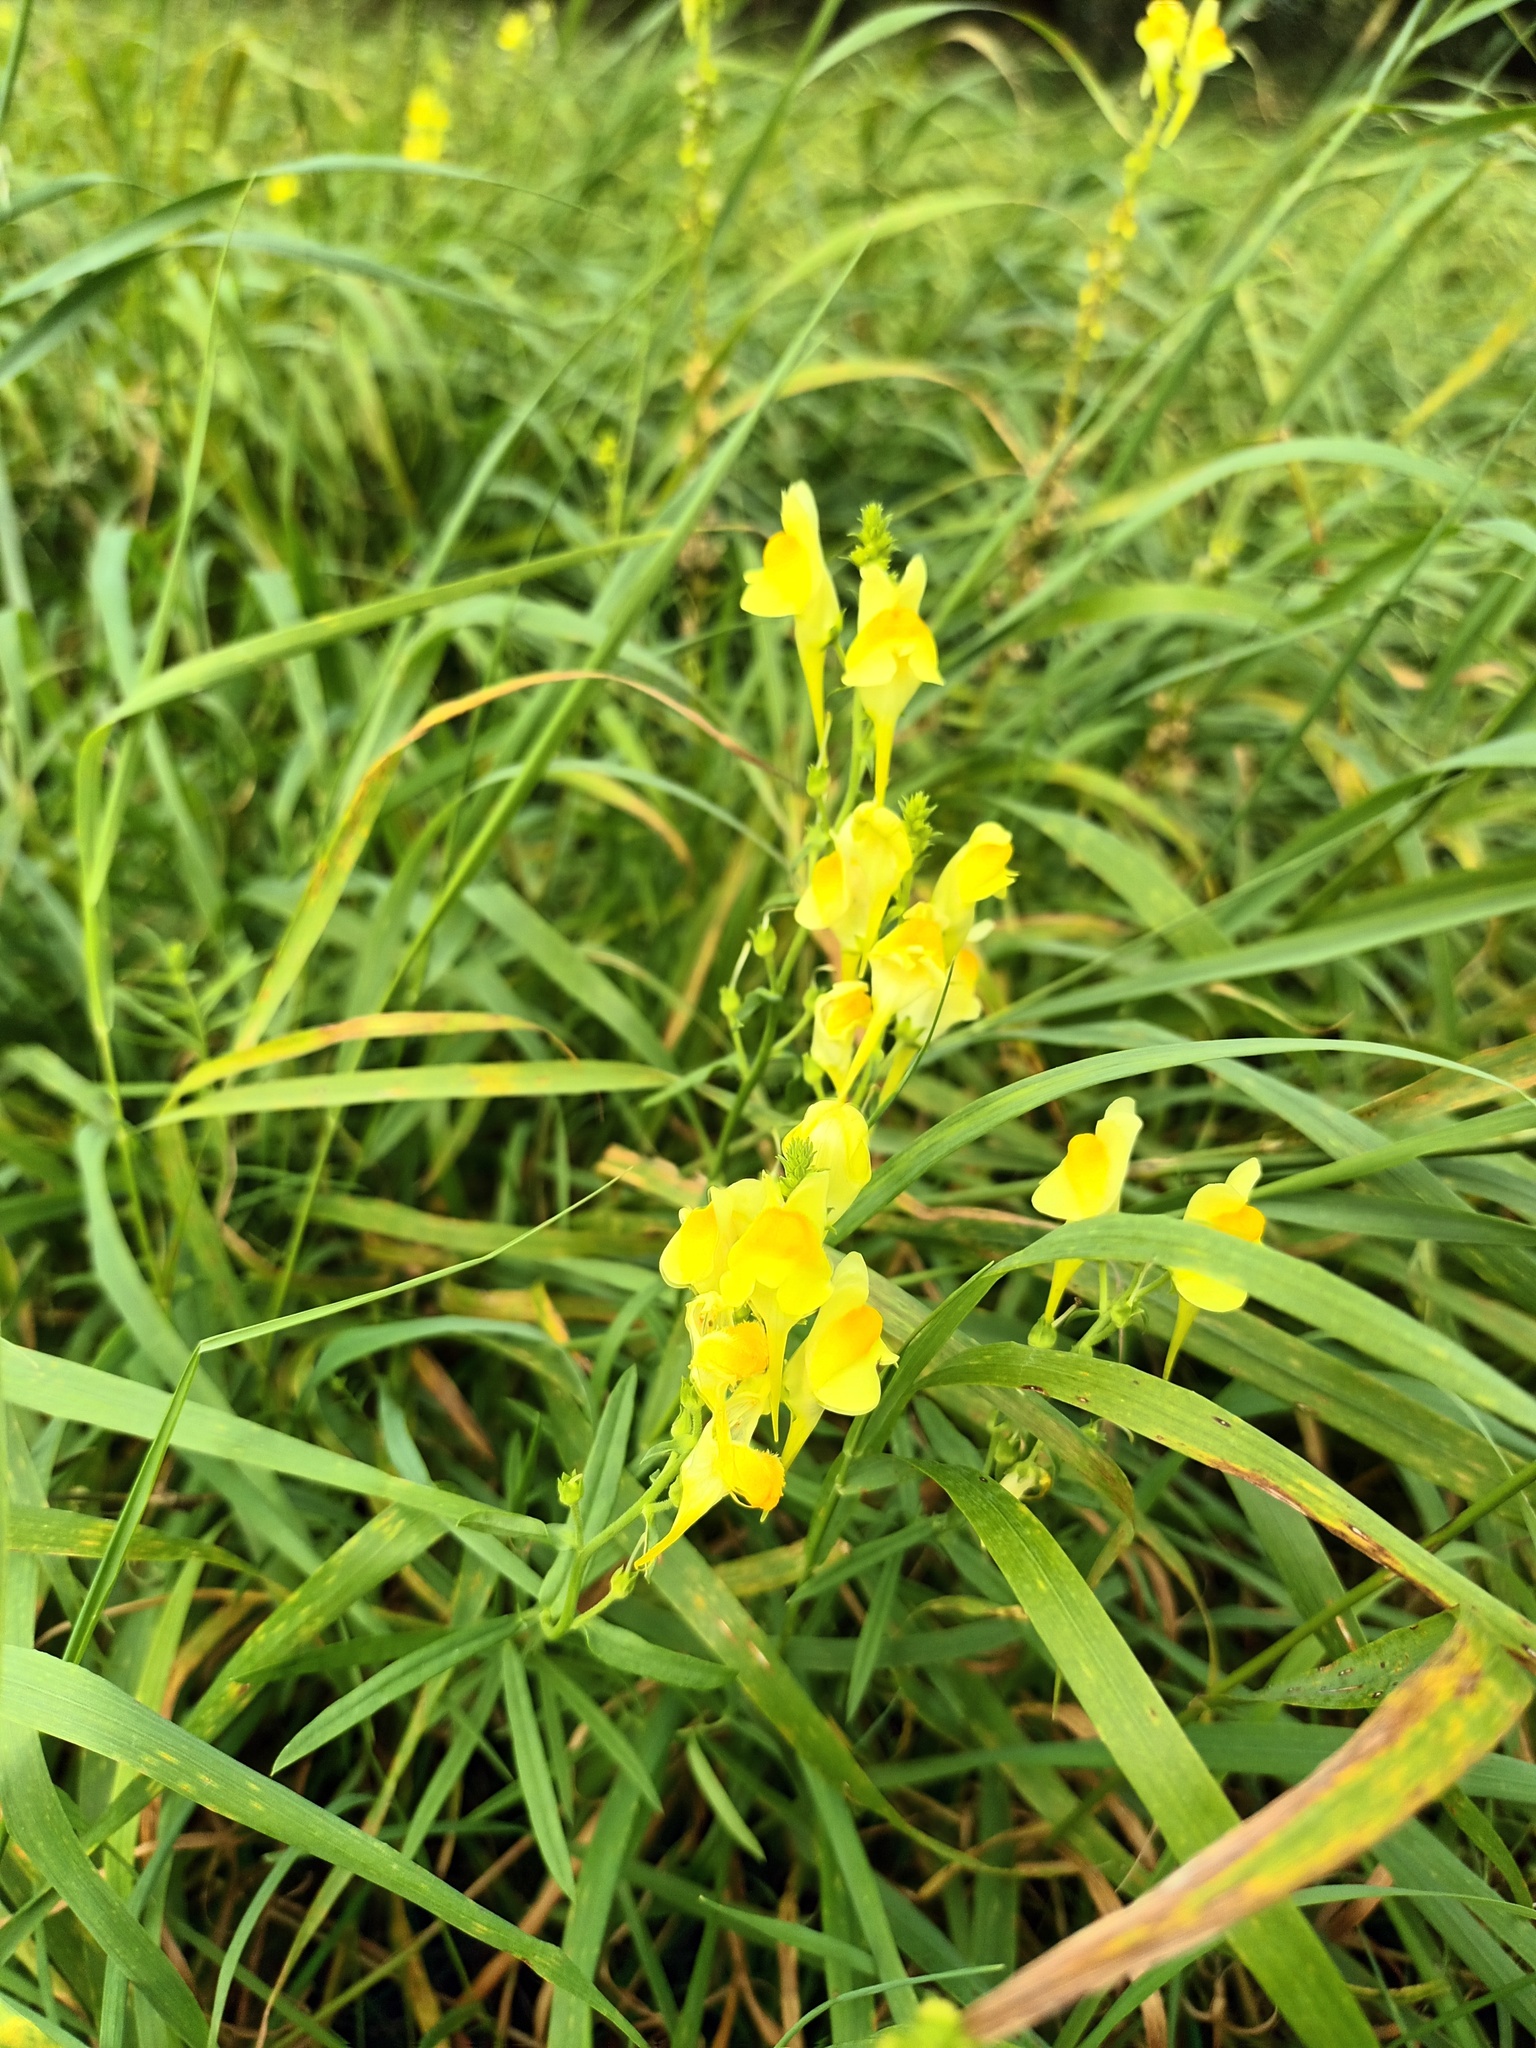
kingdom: Plantae
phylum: Tracheophyta
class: Magnoliopsida
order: Lamiales
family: Plantaginaceae
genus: Linaria
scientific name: Linaria vulgaris
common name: Butter and eggs
